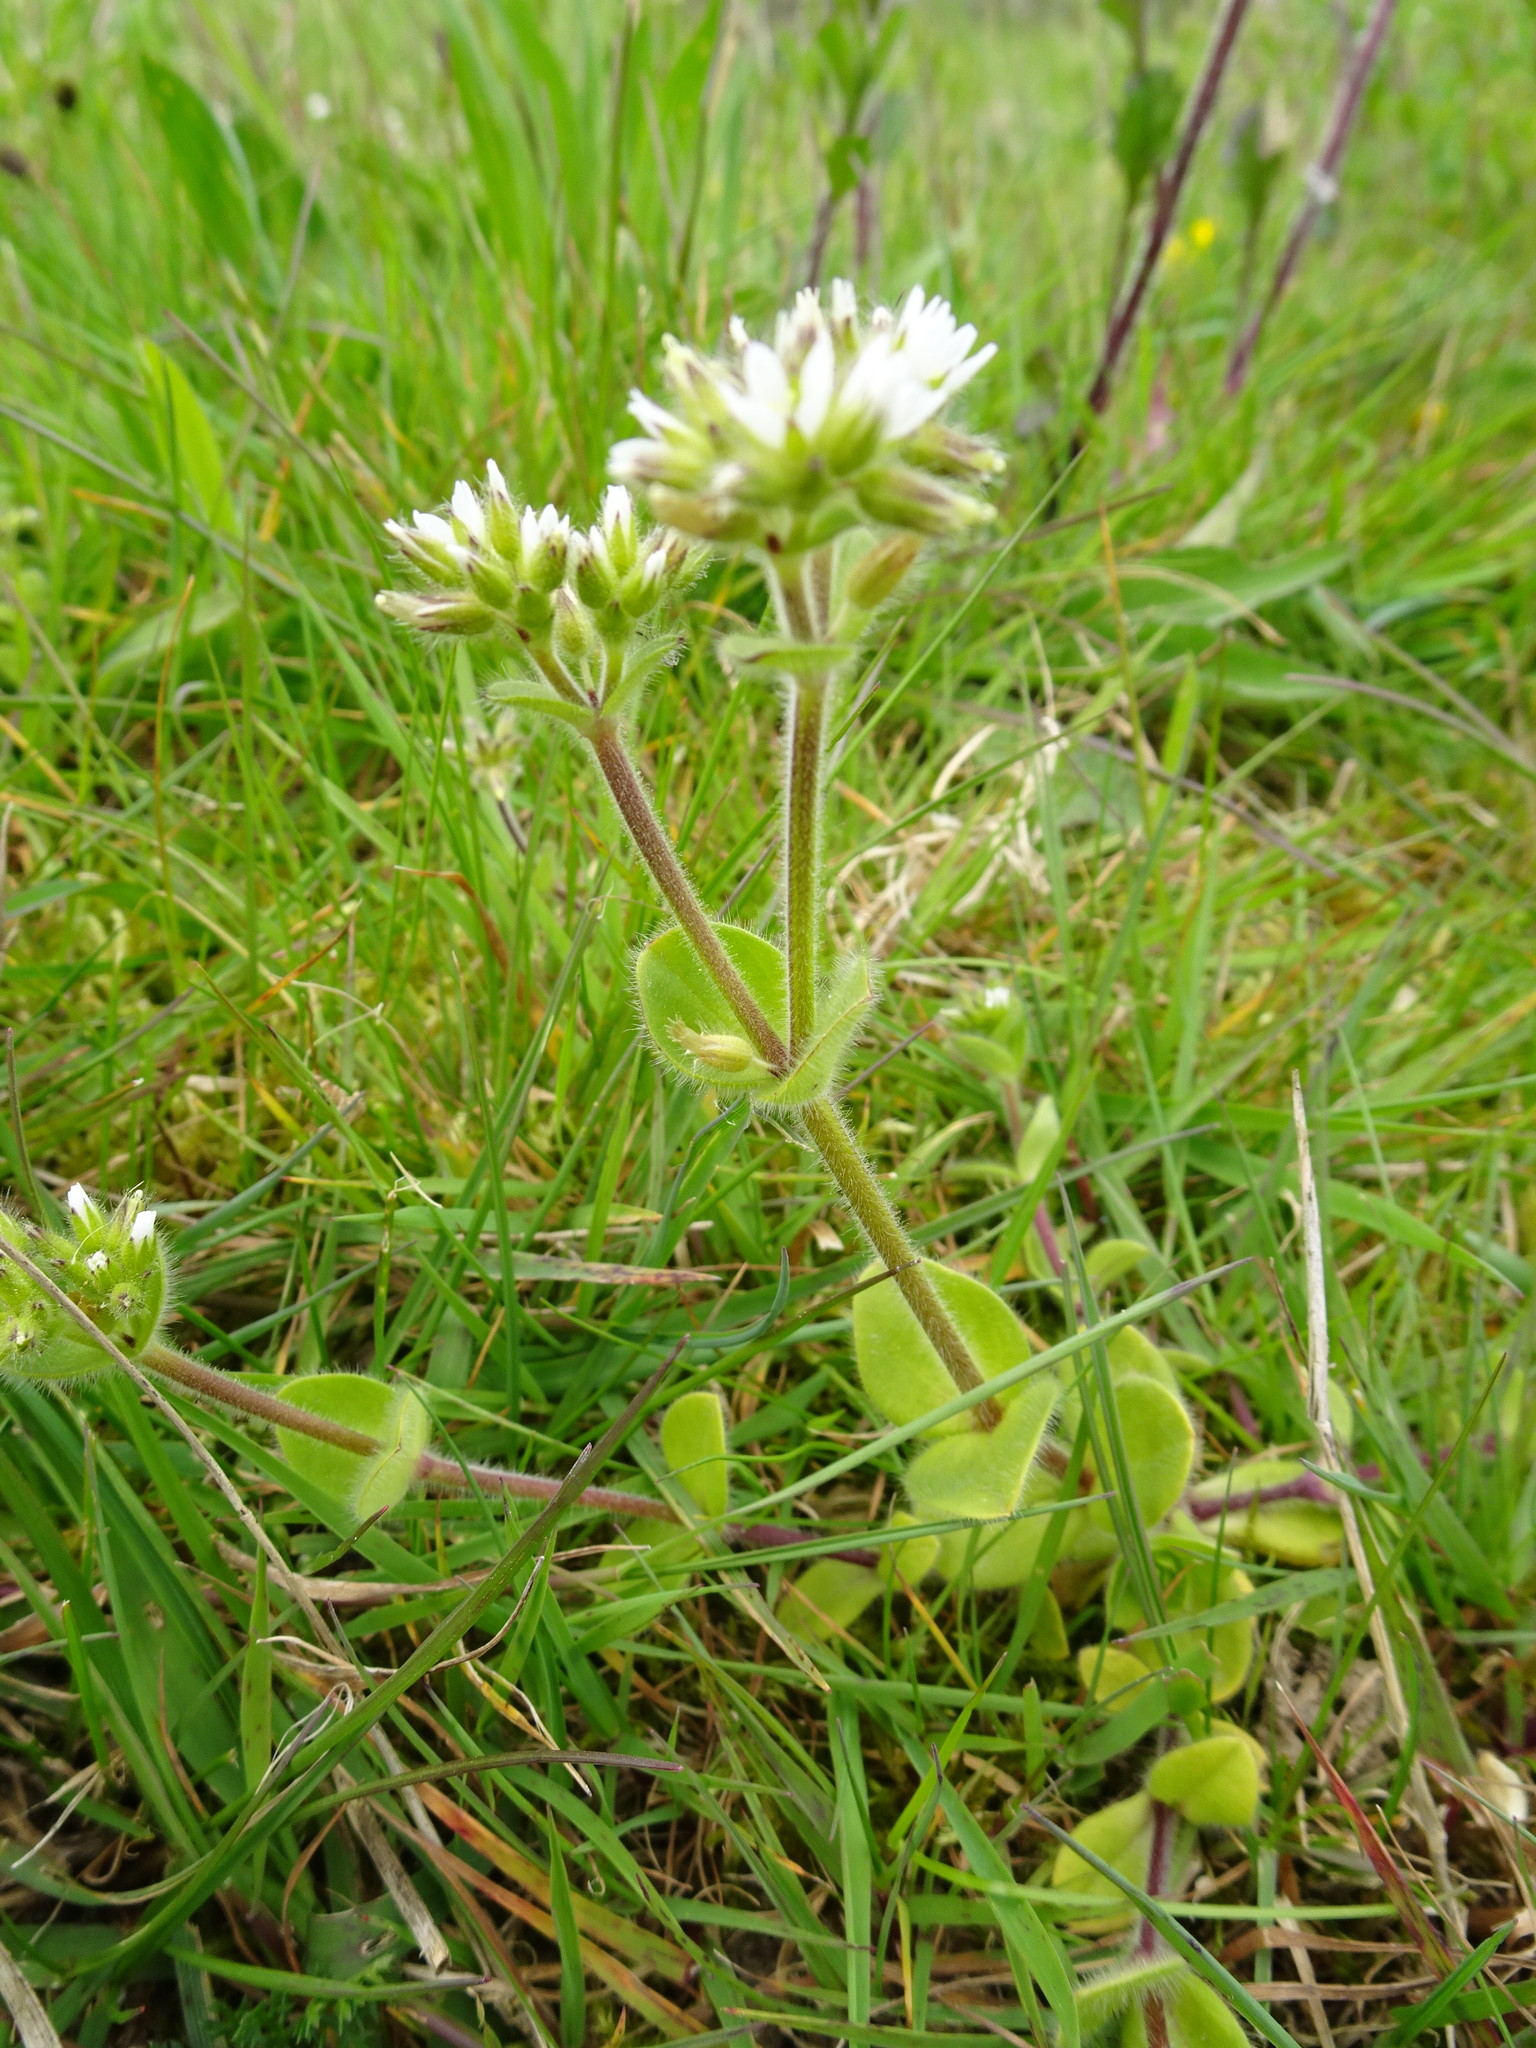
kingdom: Plantae
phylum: Tracheophyta
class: Magnoliopsida
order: Caryophyllales
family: Caryophyllaceae
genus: Cerastium
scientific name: Cerastium glomeratum
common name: Sticky chickweed
